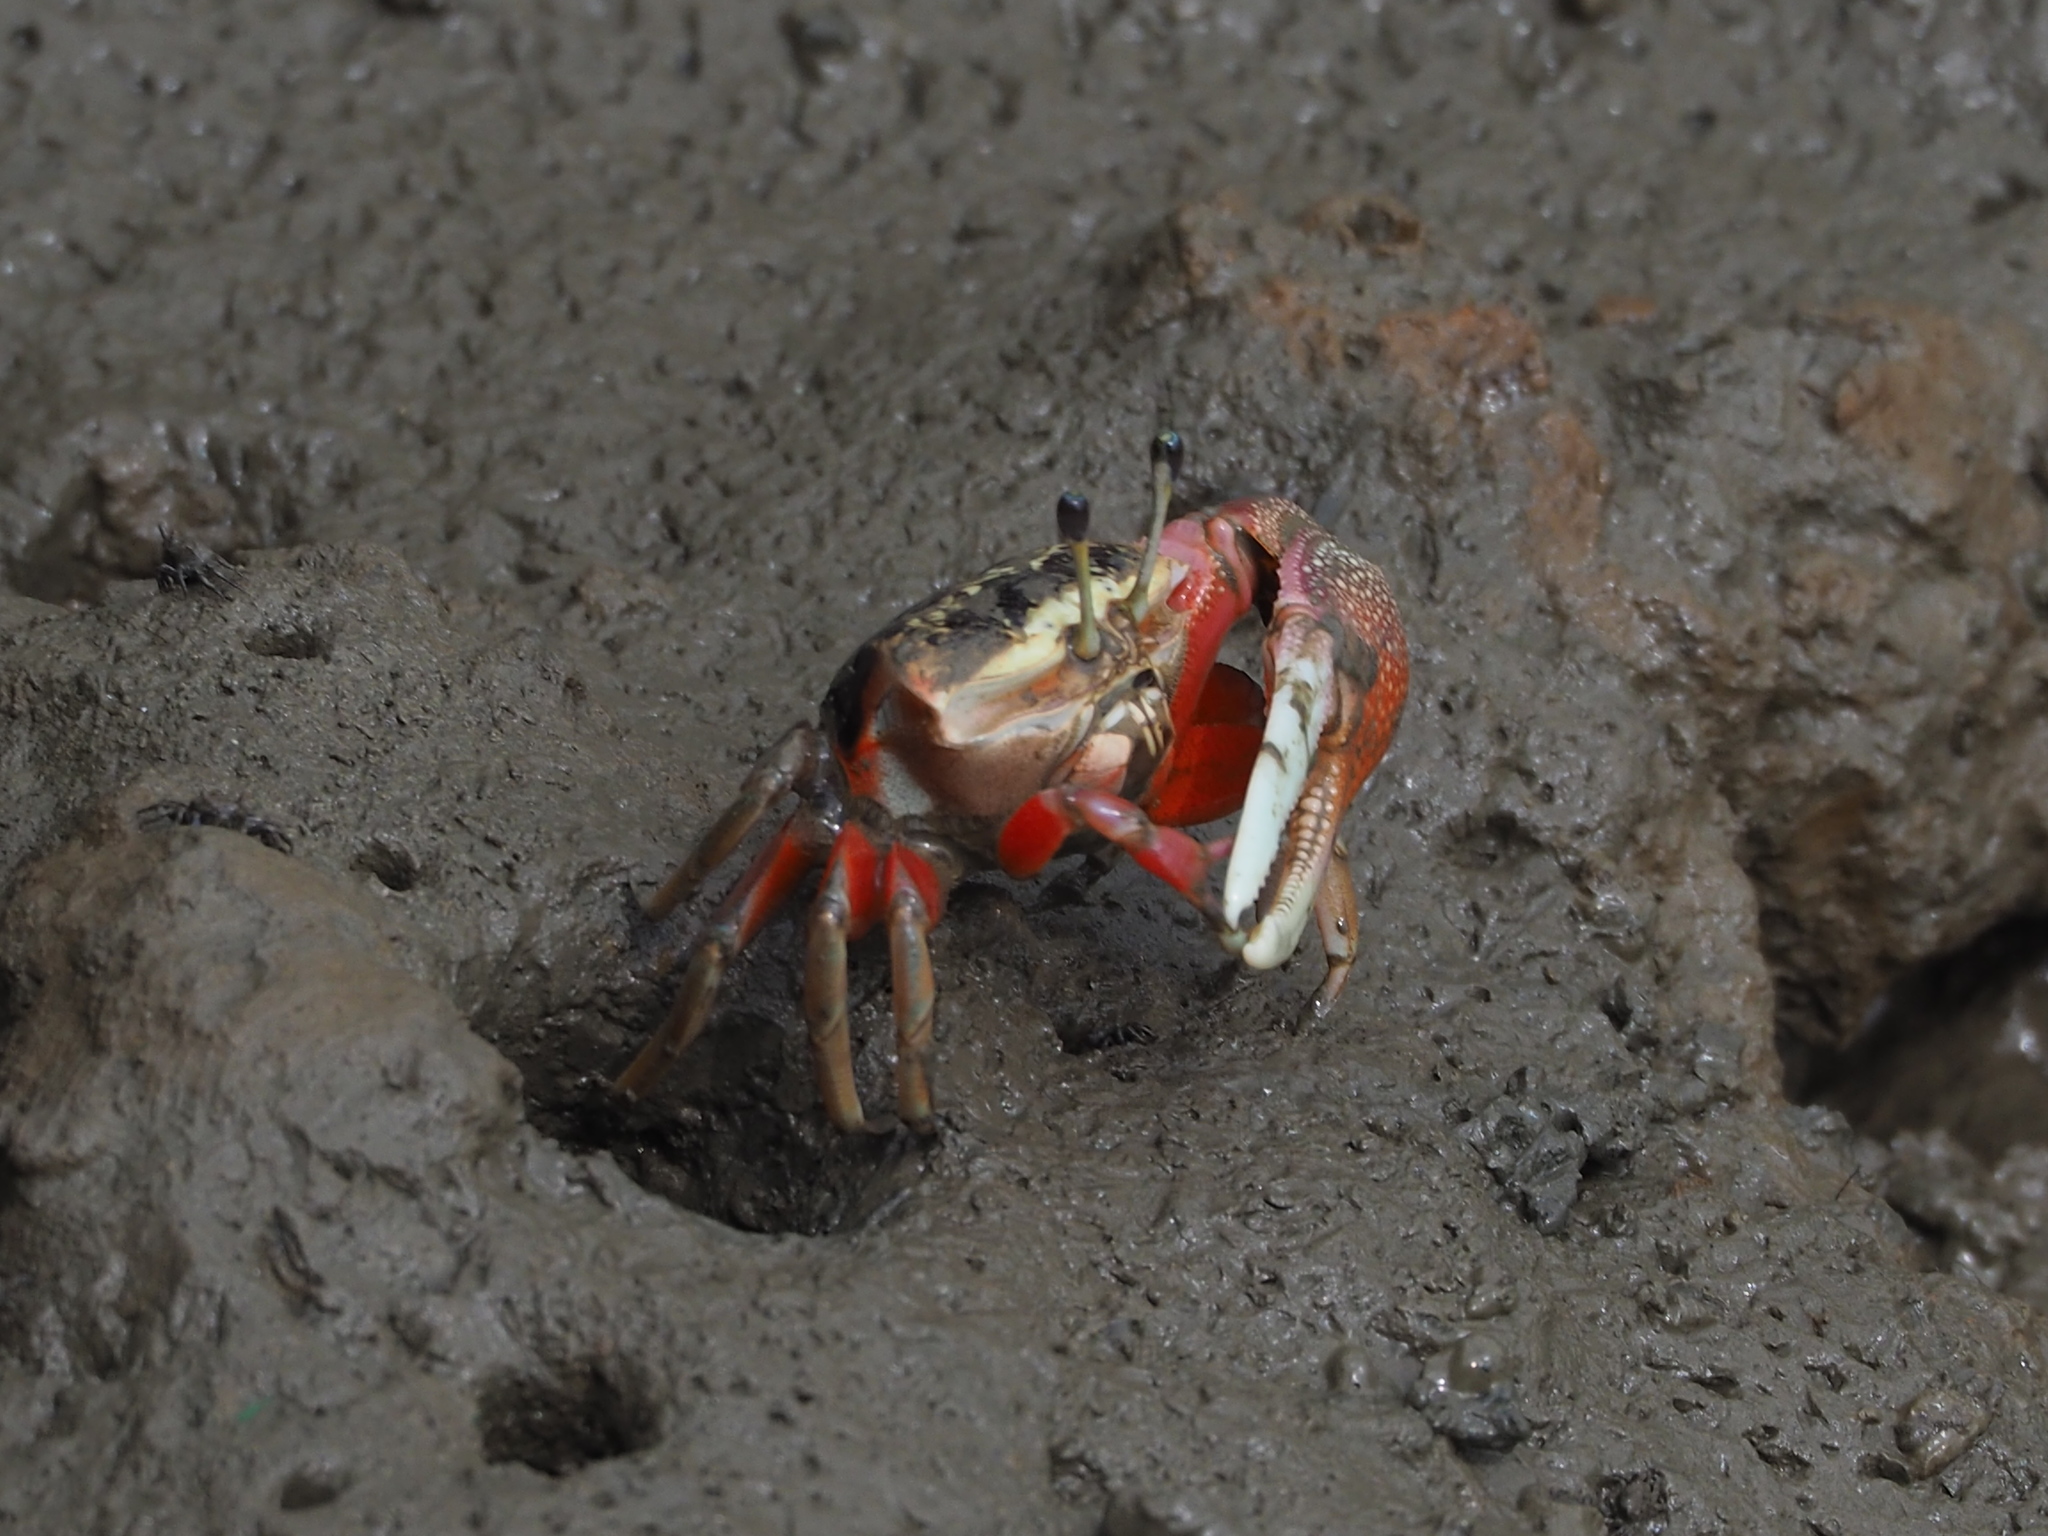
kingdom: Animalia
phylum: Arthropoda
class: Malacostraca
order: Decapoda
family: Ocypodidae
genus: Tubuca
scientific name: Tubuca arcuata
